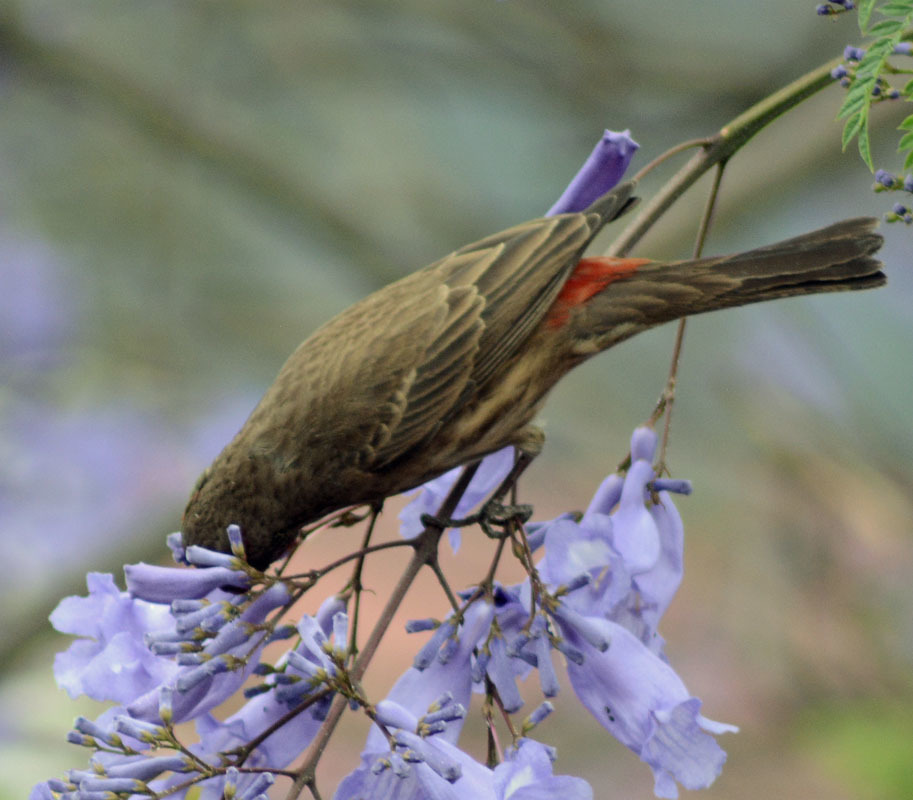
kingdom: Animalia
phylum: Chordata
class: Aves
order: Passeriformes
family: Fringillidae
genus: Haemorhous
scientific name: Haemorhous mexicanus
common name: House finch
